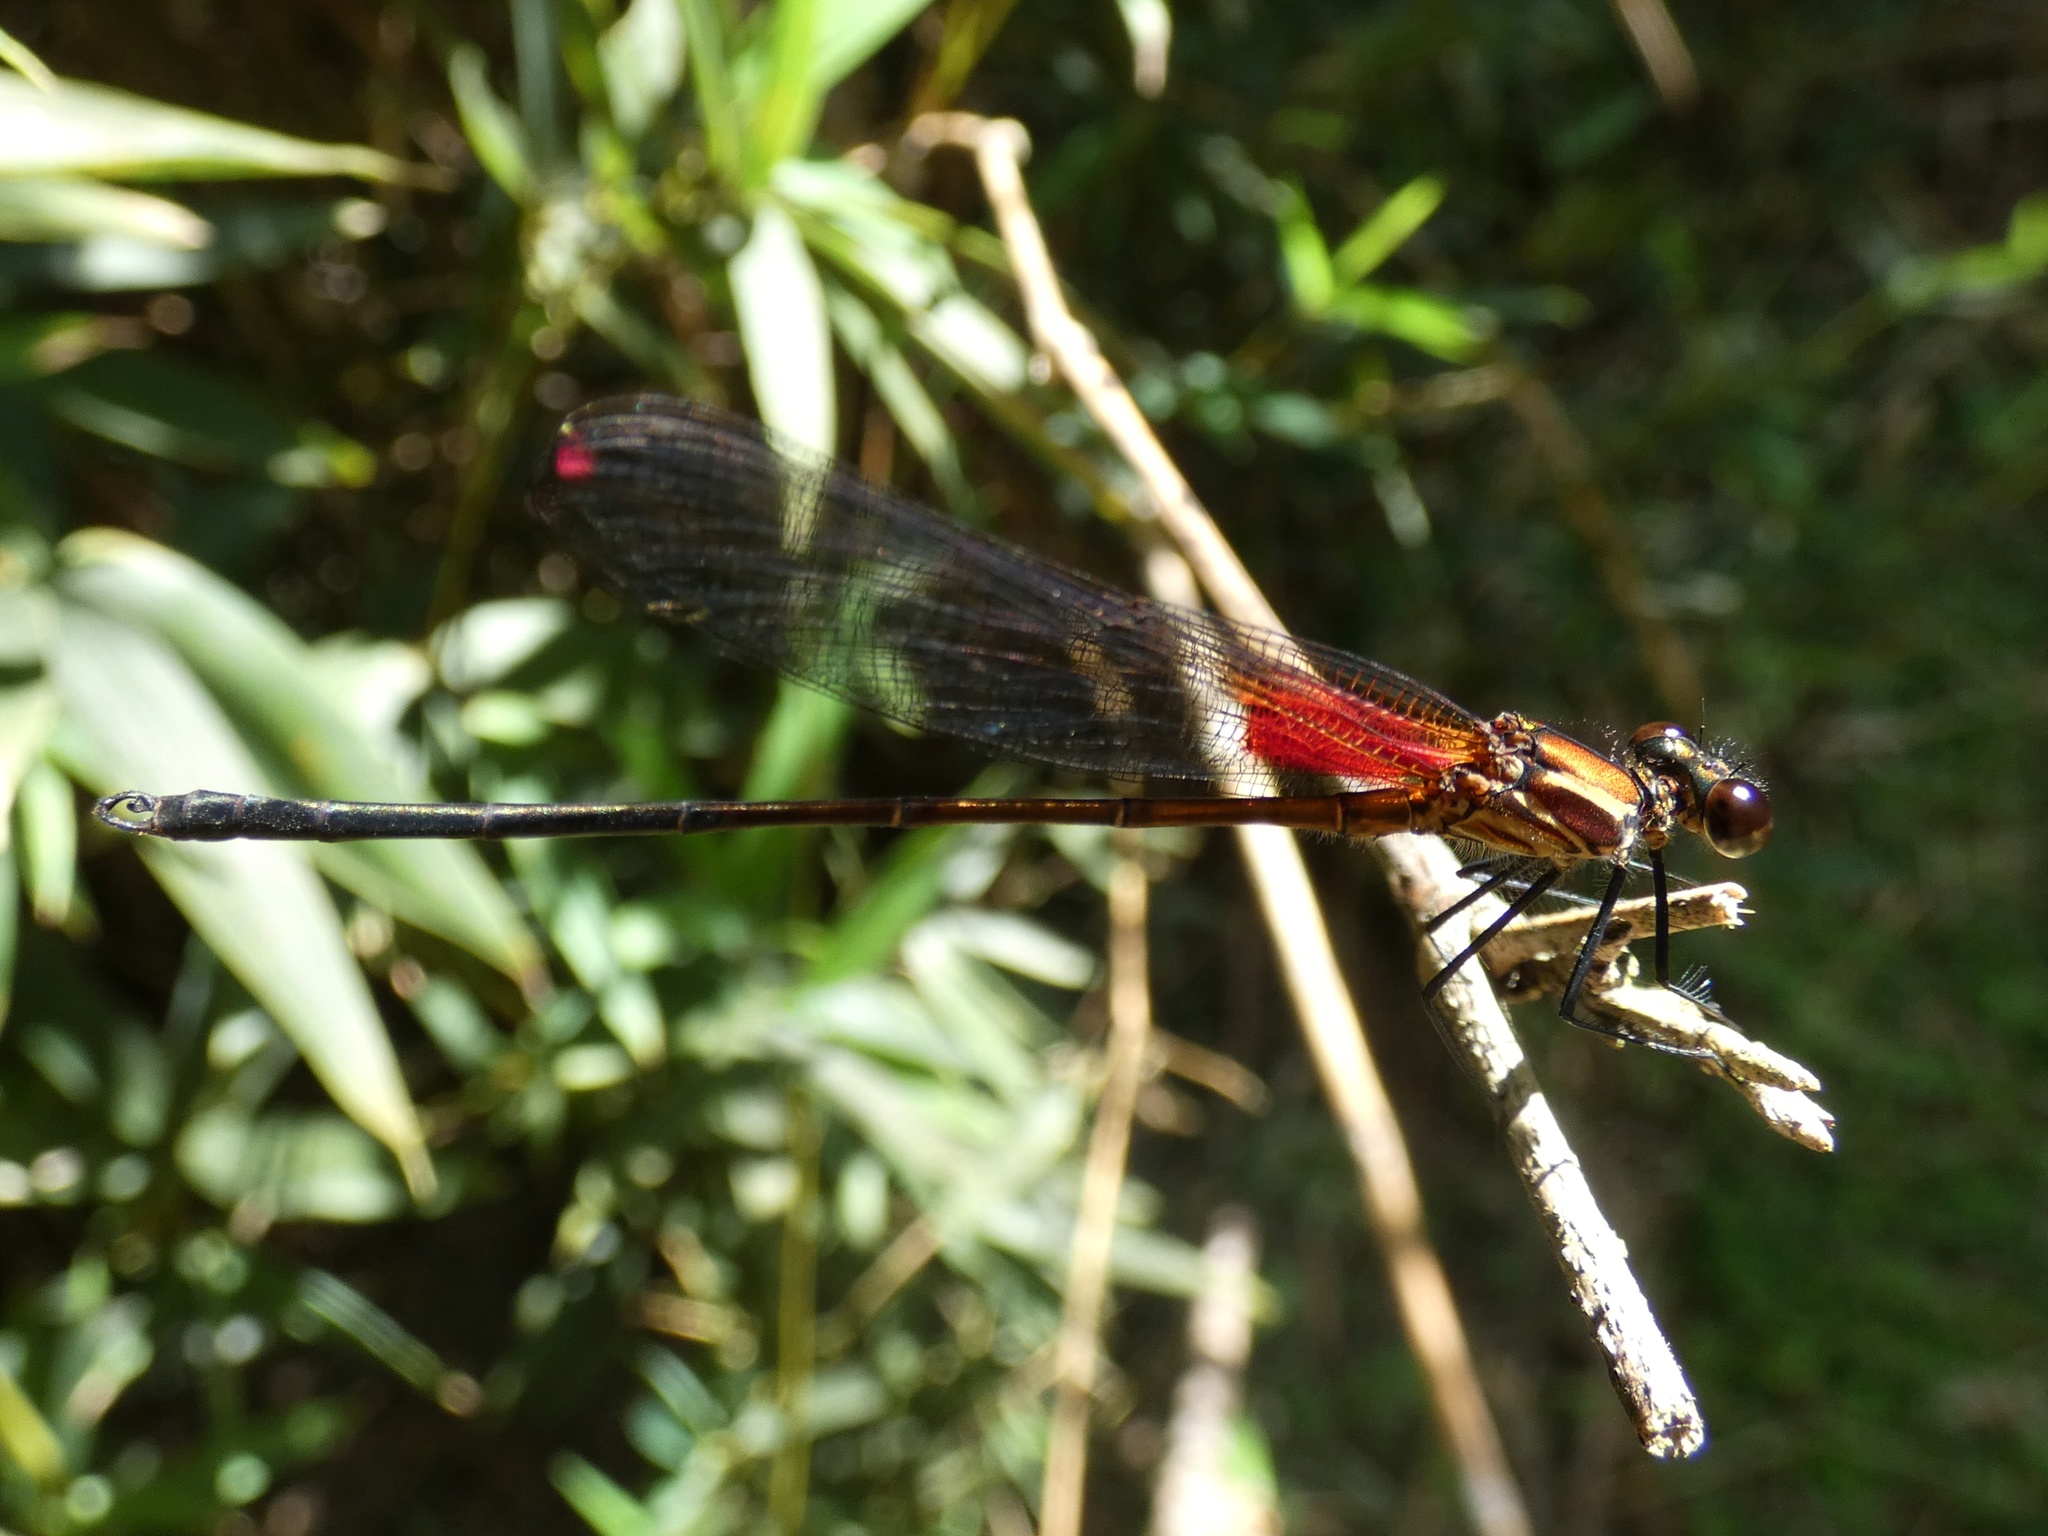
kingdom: Animalia
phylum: Arthropoda
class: Insecta
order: Odonata
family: Calopterygidae
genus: Hetaerina
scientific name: Hetaerina occisa
